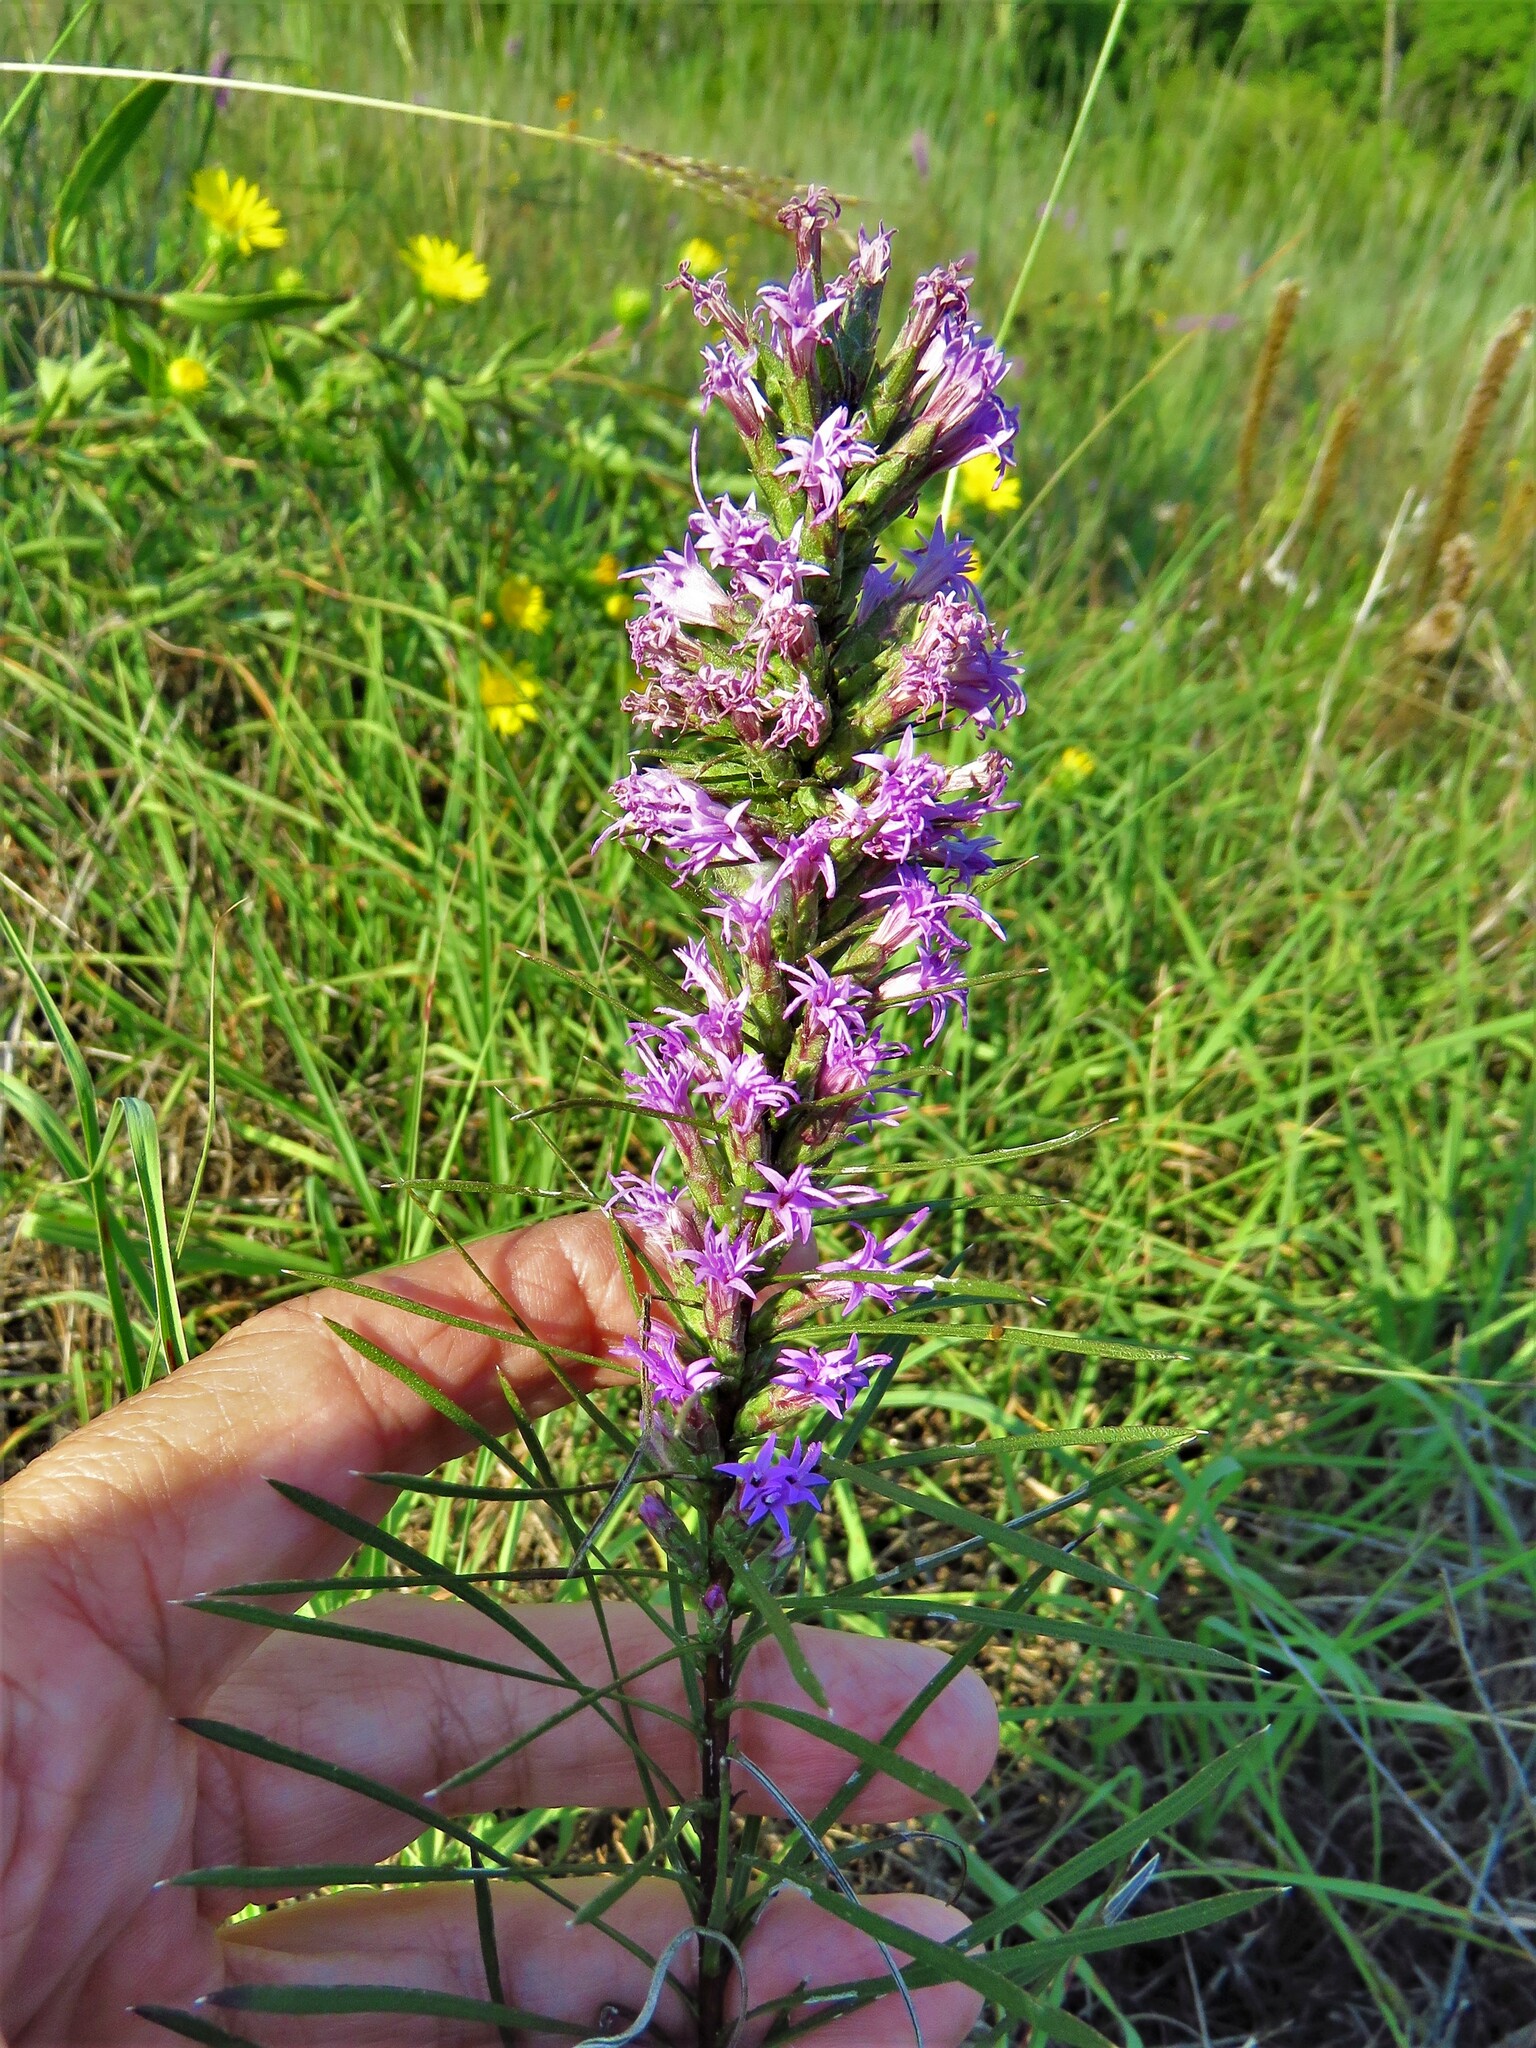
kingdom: Plantae
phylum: Tracheophyta
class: Magnoliopsida
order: Asterales
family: Asteraceae
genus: Liatris
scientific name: Liatris punctata
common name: Dotted gayfeather
